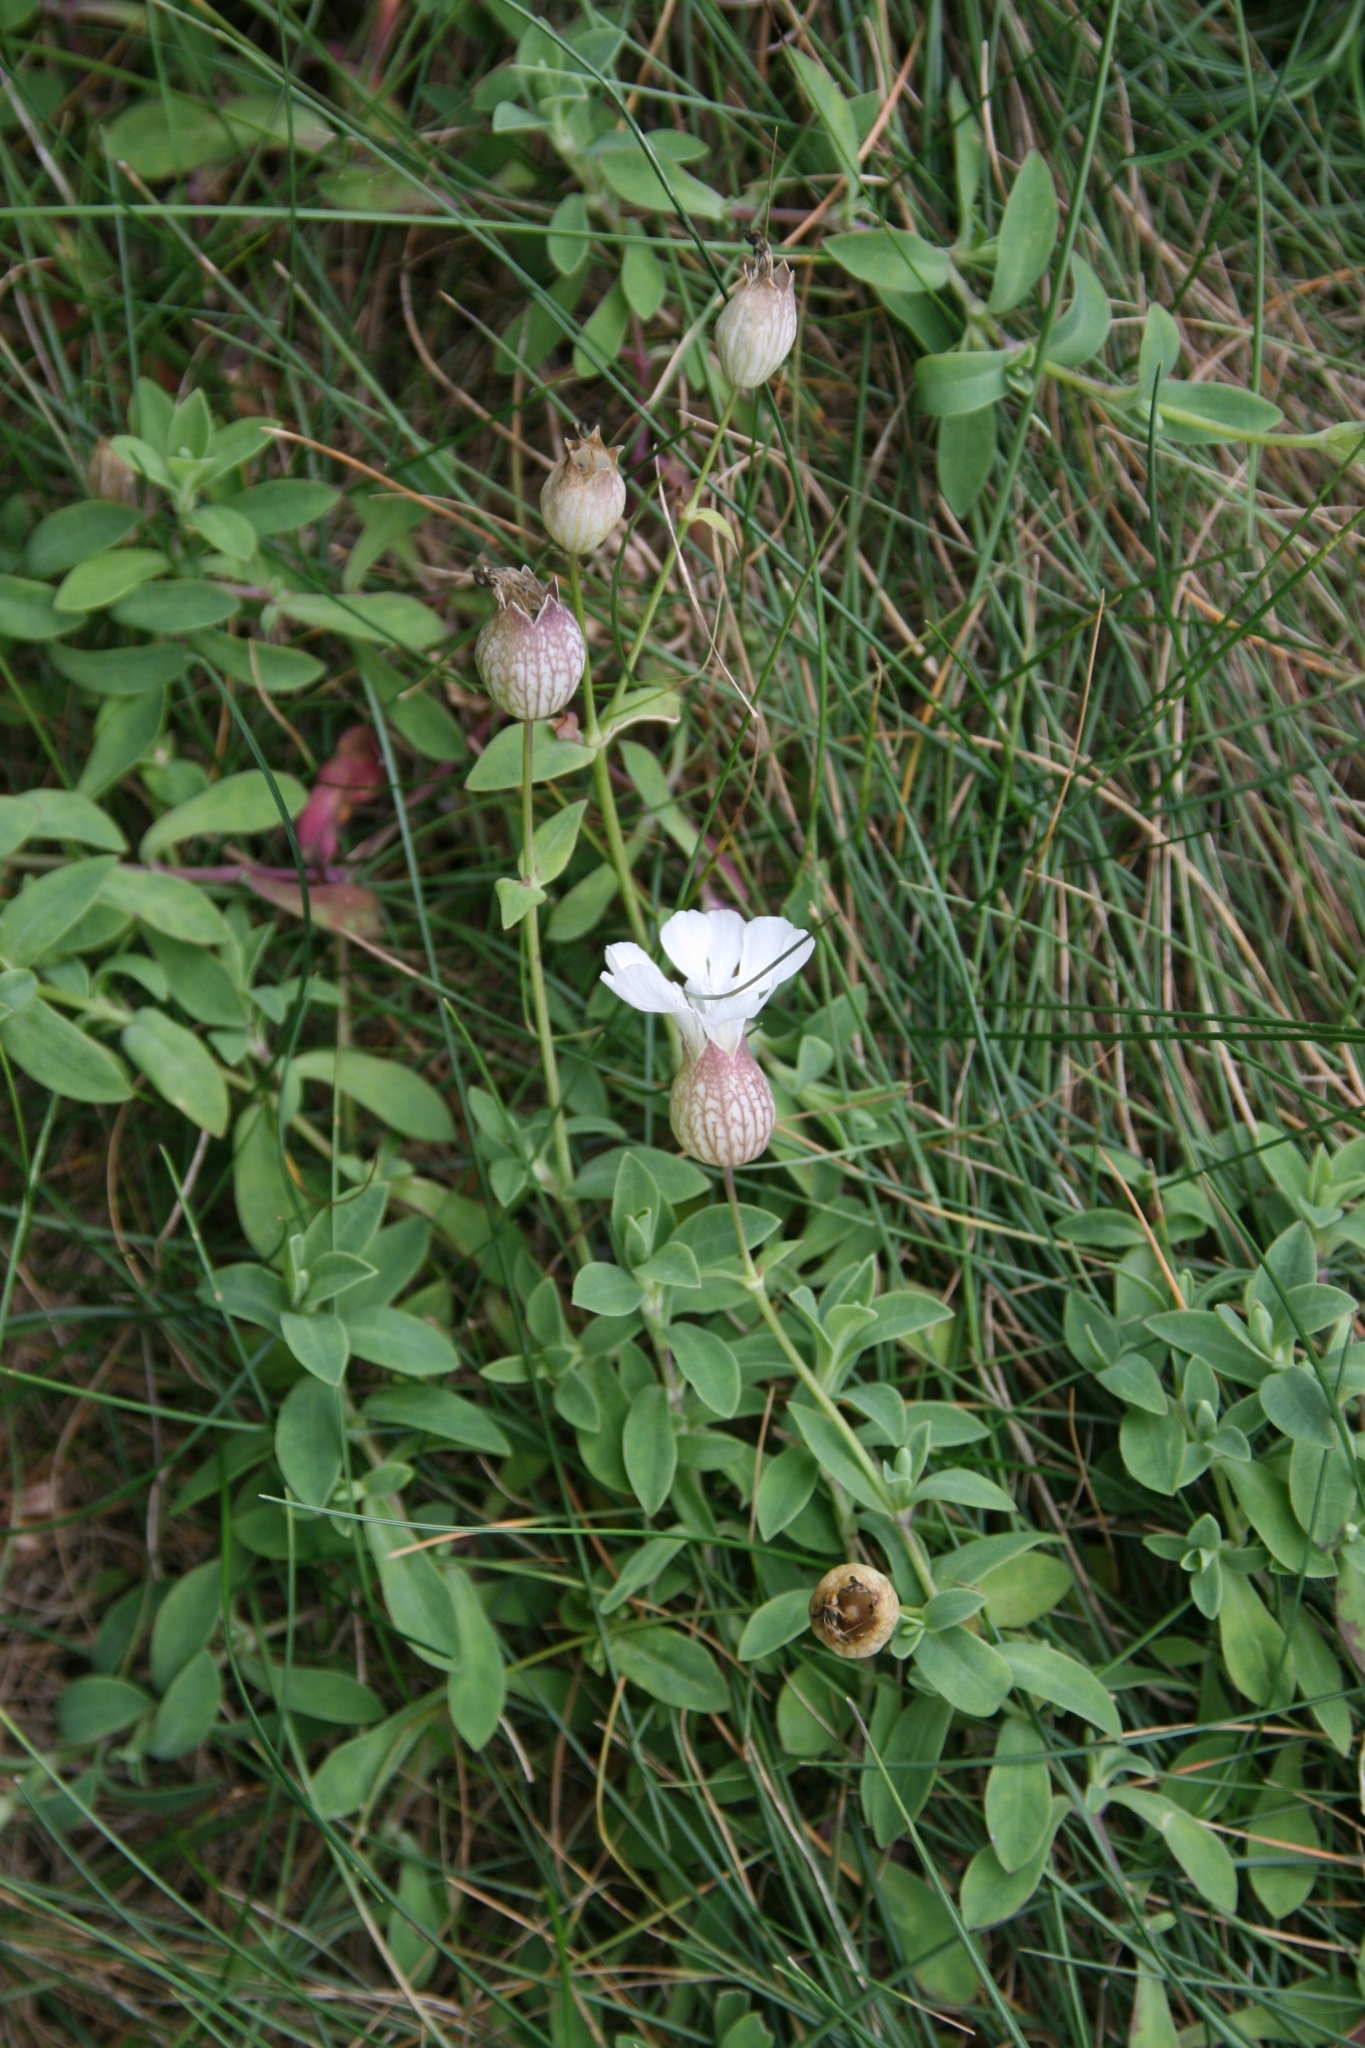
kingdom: Plantae
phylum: Tracheophyta
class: Magnoliopsida
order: Caryophyllales
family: Caryophyllaceae
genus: Silene
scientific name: Silene uniflora
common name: Sea campion
